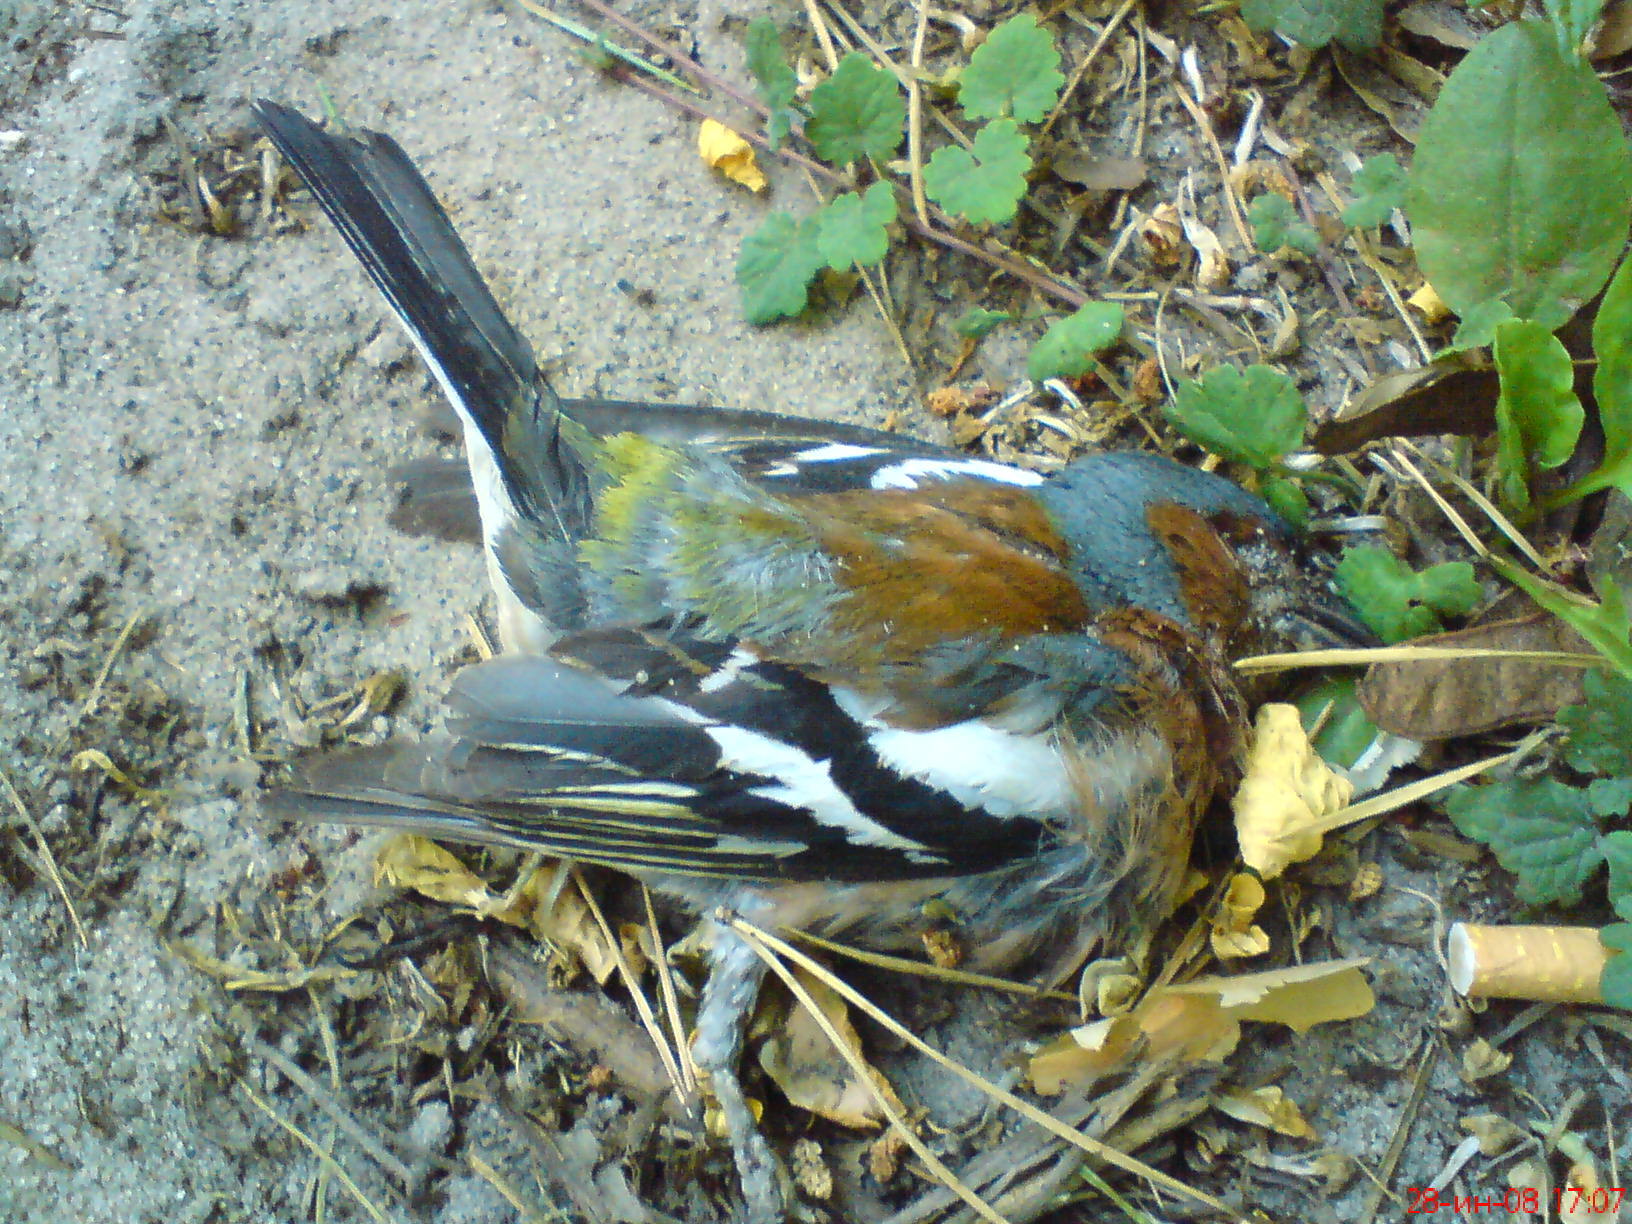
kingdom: Animalia
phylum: Chordata
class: Aves
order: Passeriformes
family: Fringillidae
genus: Fringilla
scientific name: Fringilla coelebs
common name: Common chaffinch
